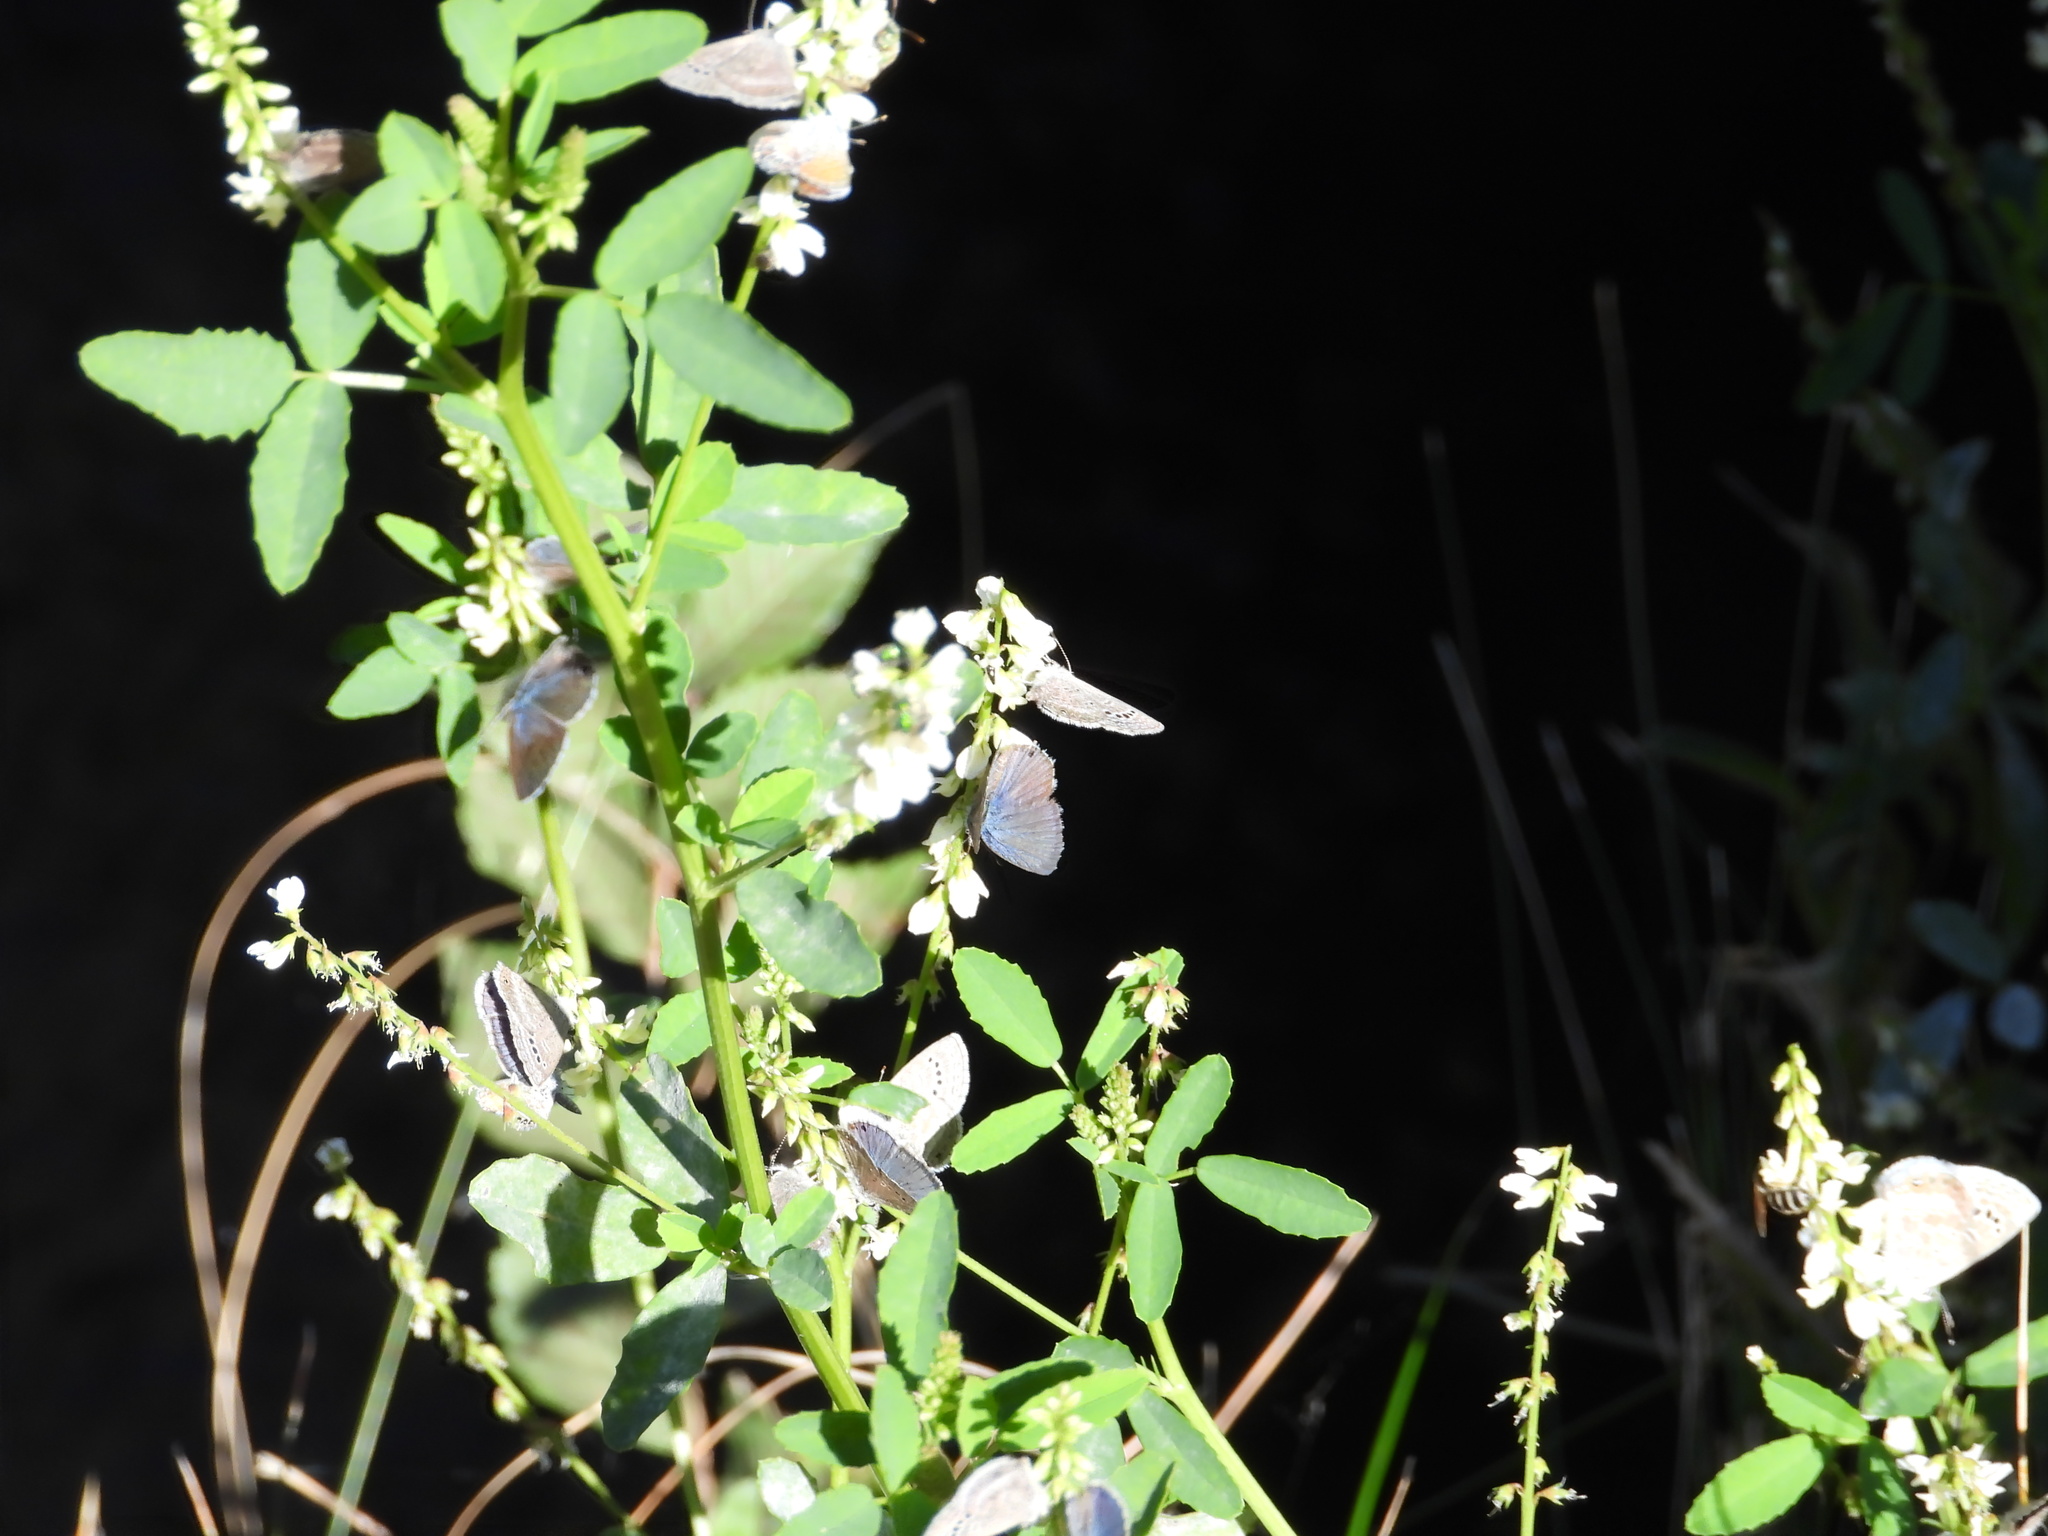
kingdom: Animalia
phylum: Arthropoda
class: Insecta
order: Lepidoptera
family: Lycaenidae
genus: Echinargus
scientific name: Echinargus isola
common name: Reakirt's blue
